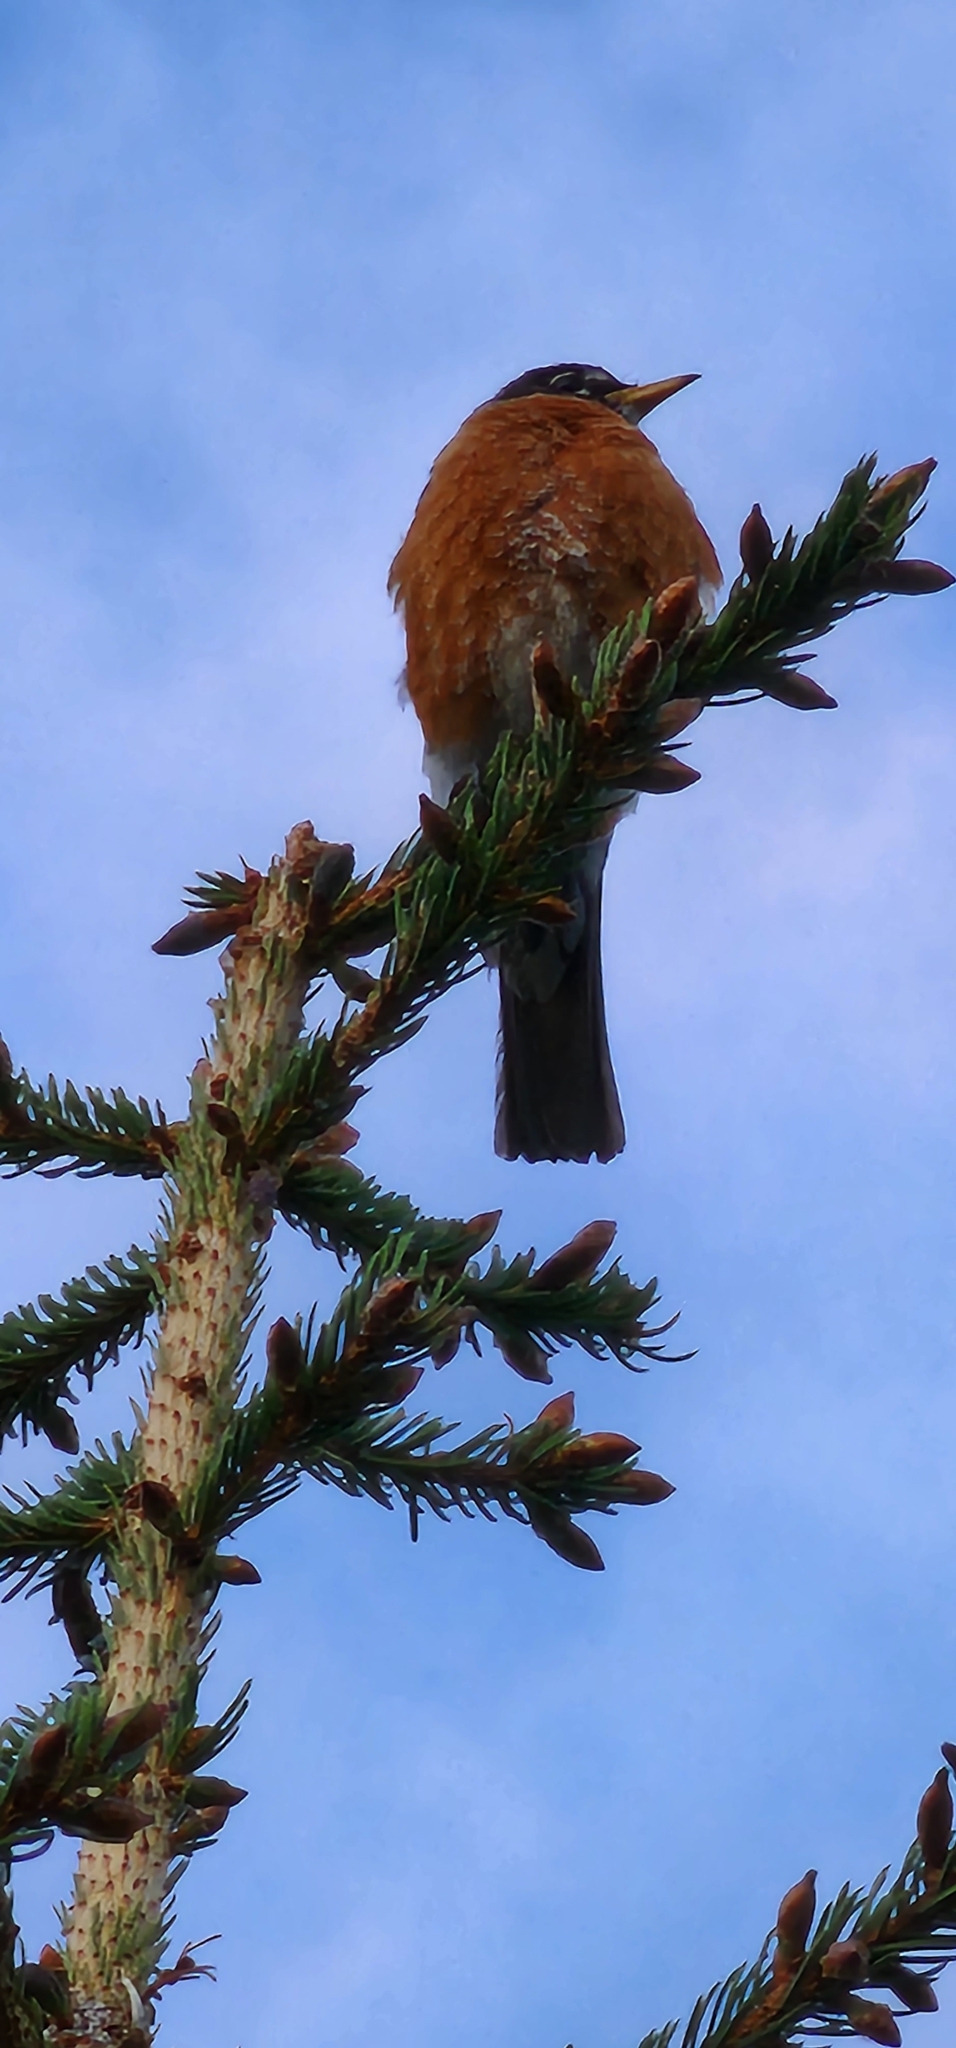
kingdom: Animalia
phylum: Chordata
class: Aves
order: Passeriformes
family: Turdidae
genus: Turdus
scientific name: Turdus migratorius
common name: American robin
